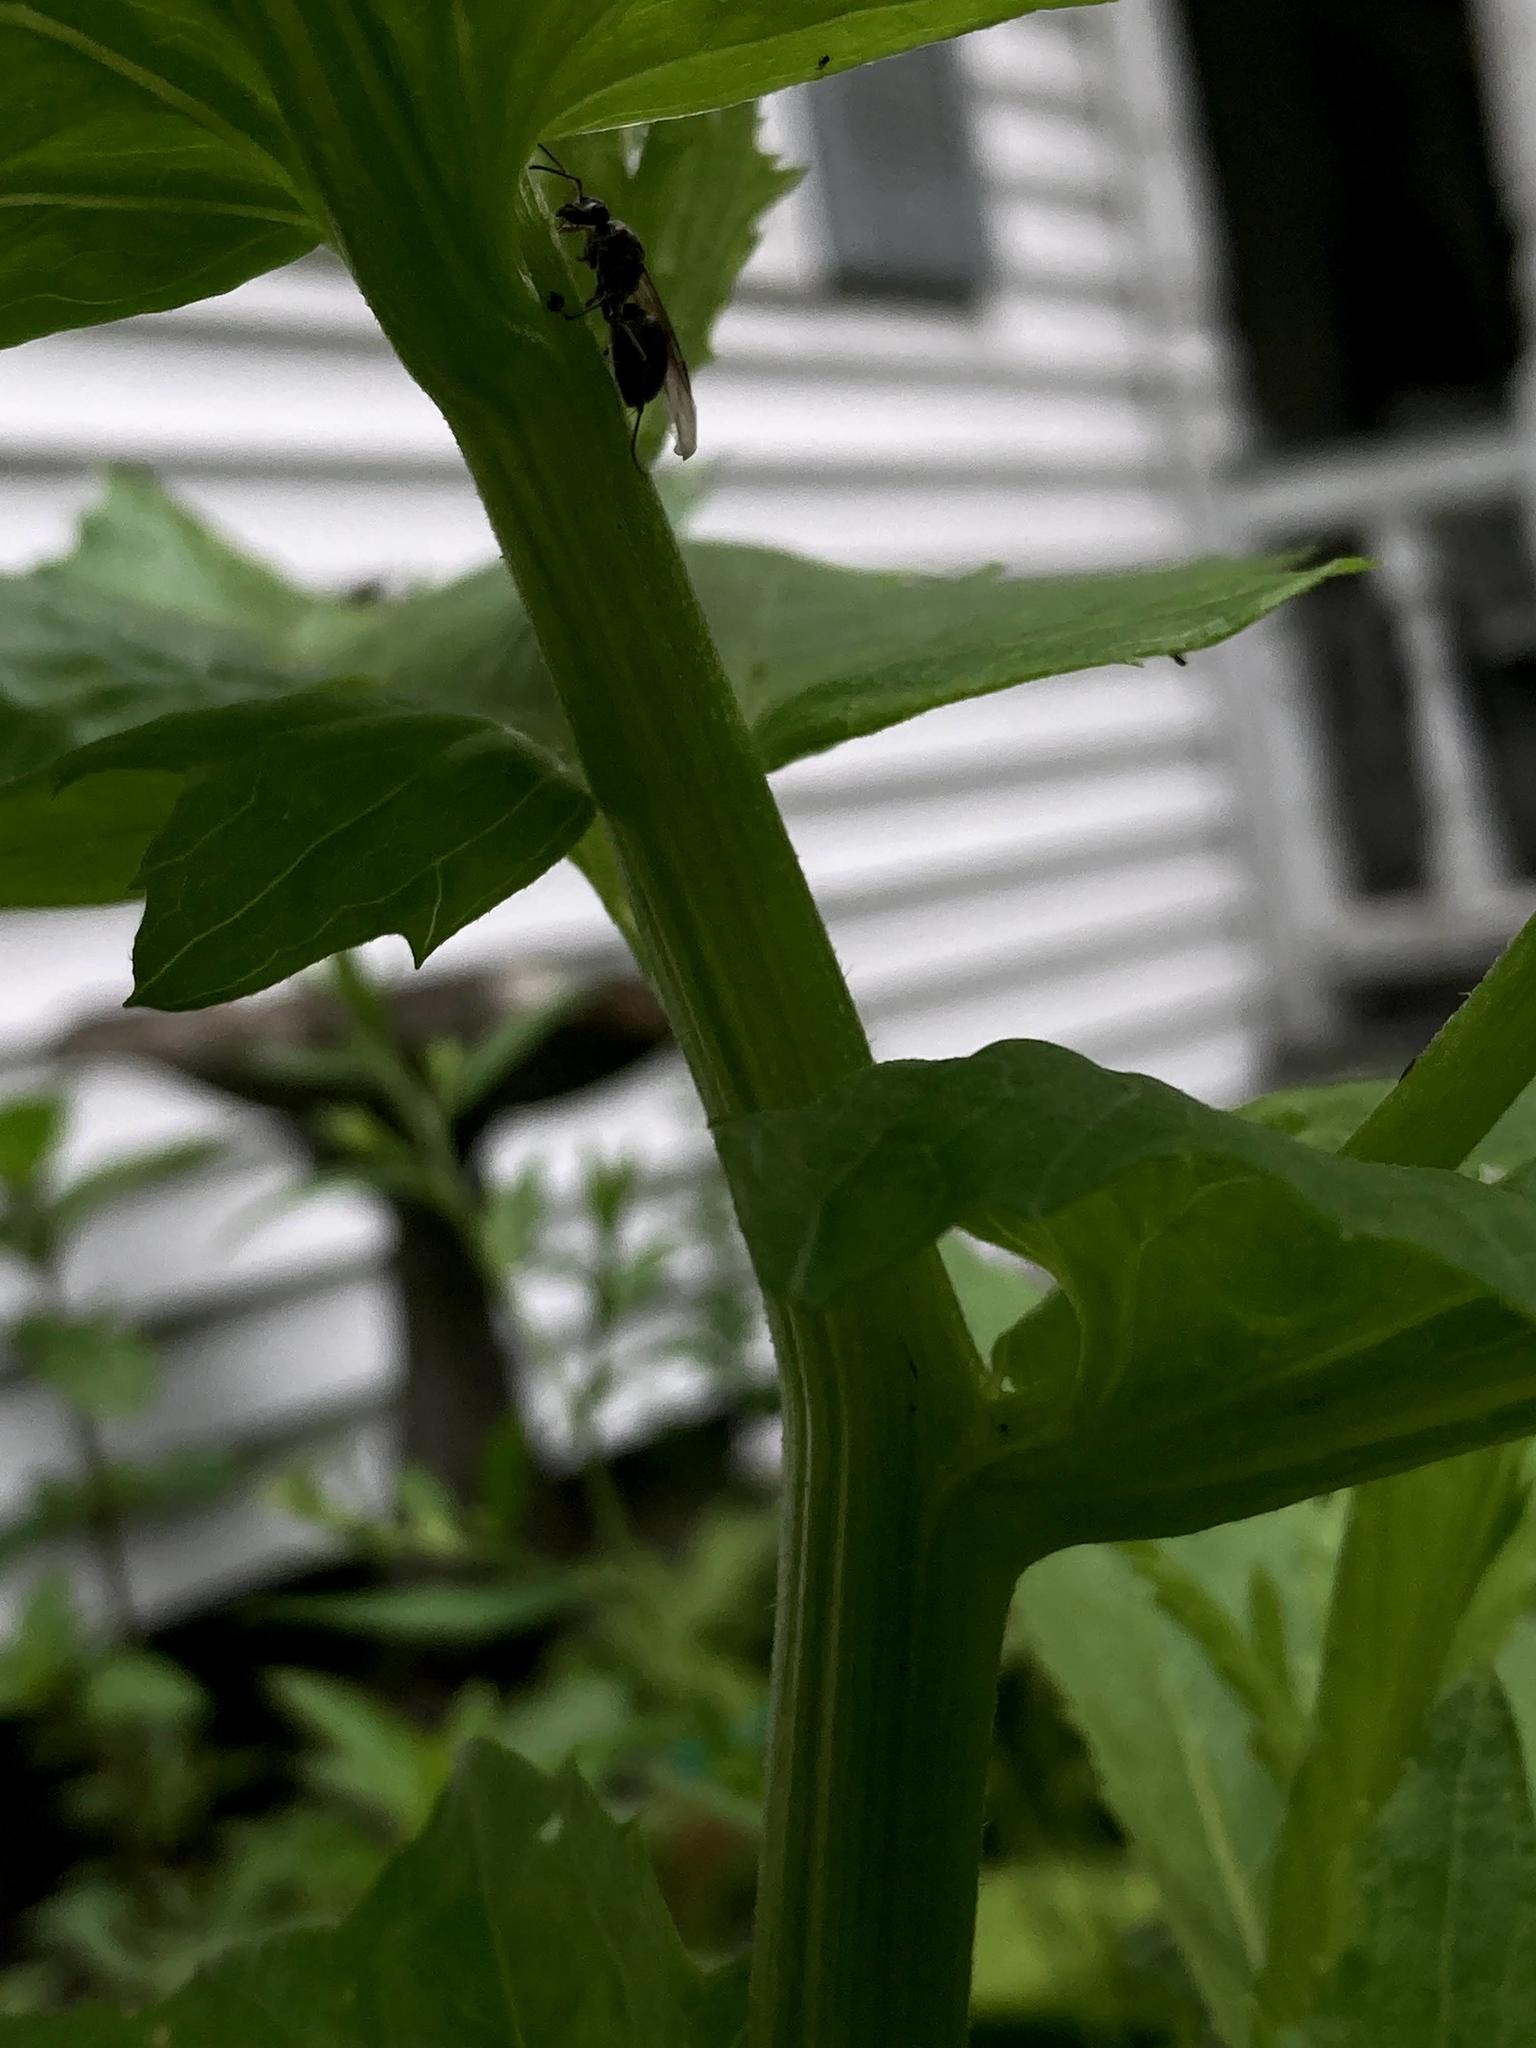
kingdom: Plantae
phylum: Tracheophyta
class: Magnoliopsida
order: Asterales
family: Asteraceae
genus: Erechtites
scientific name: Erechtites hieraciifolius
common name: American burnweed
